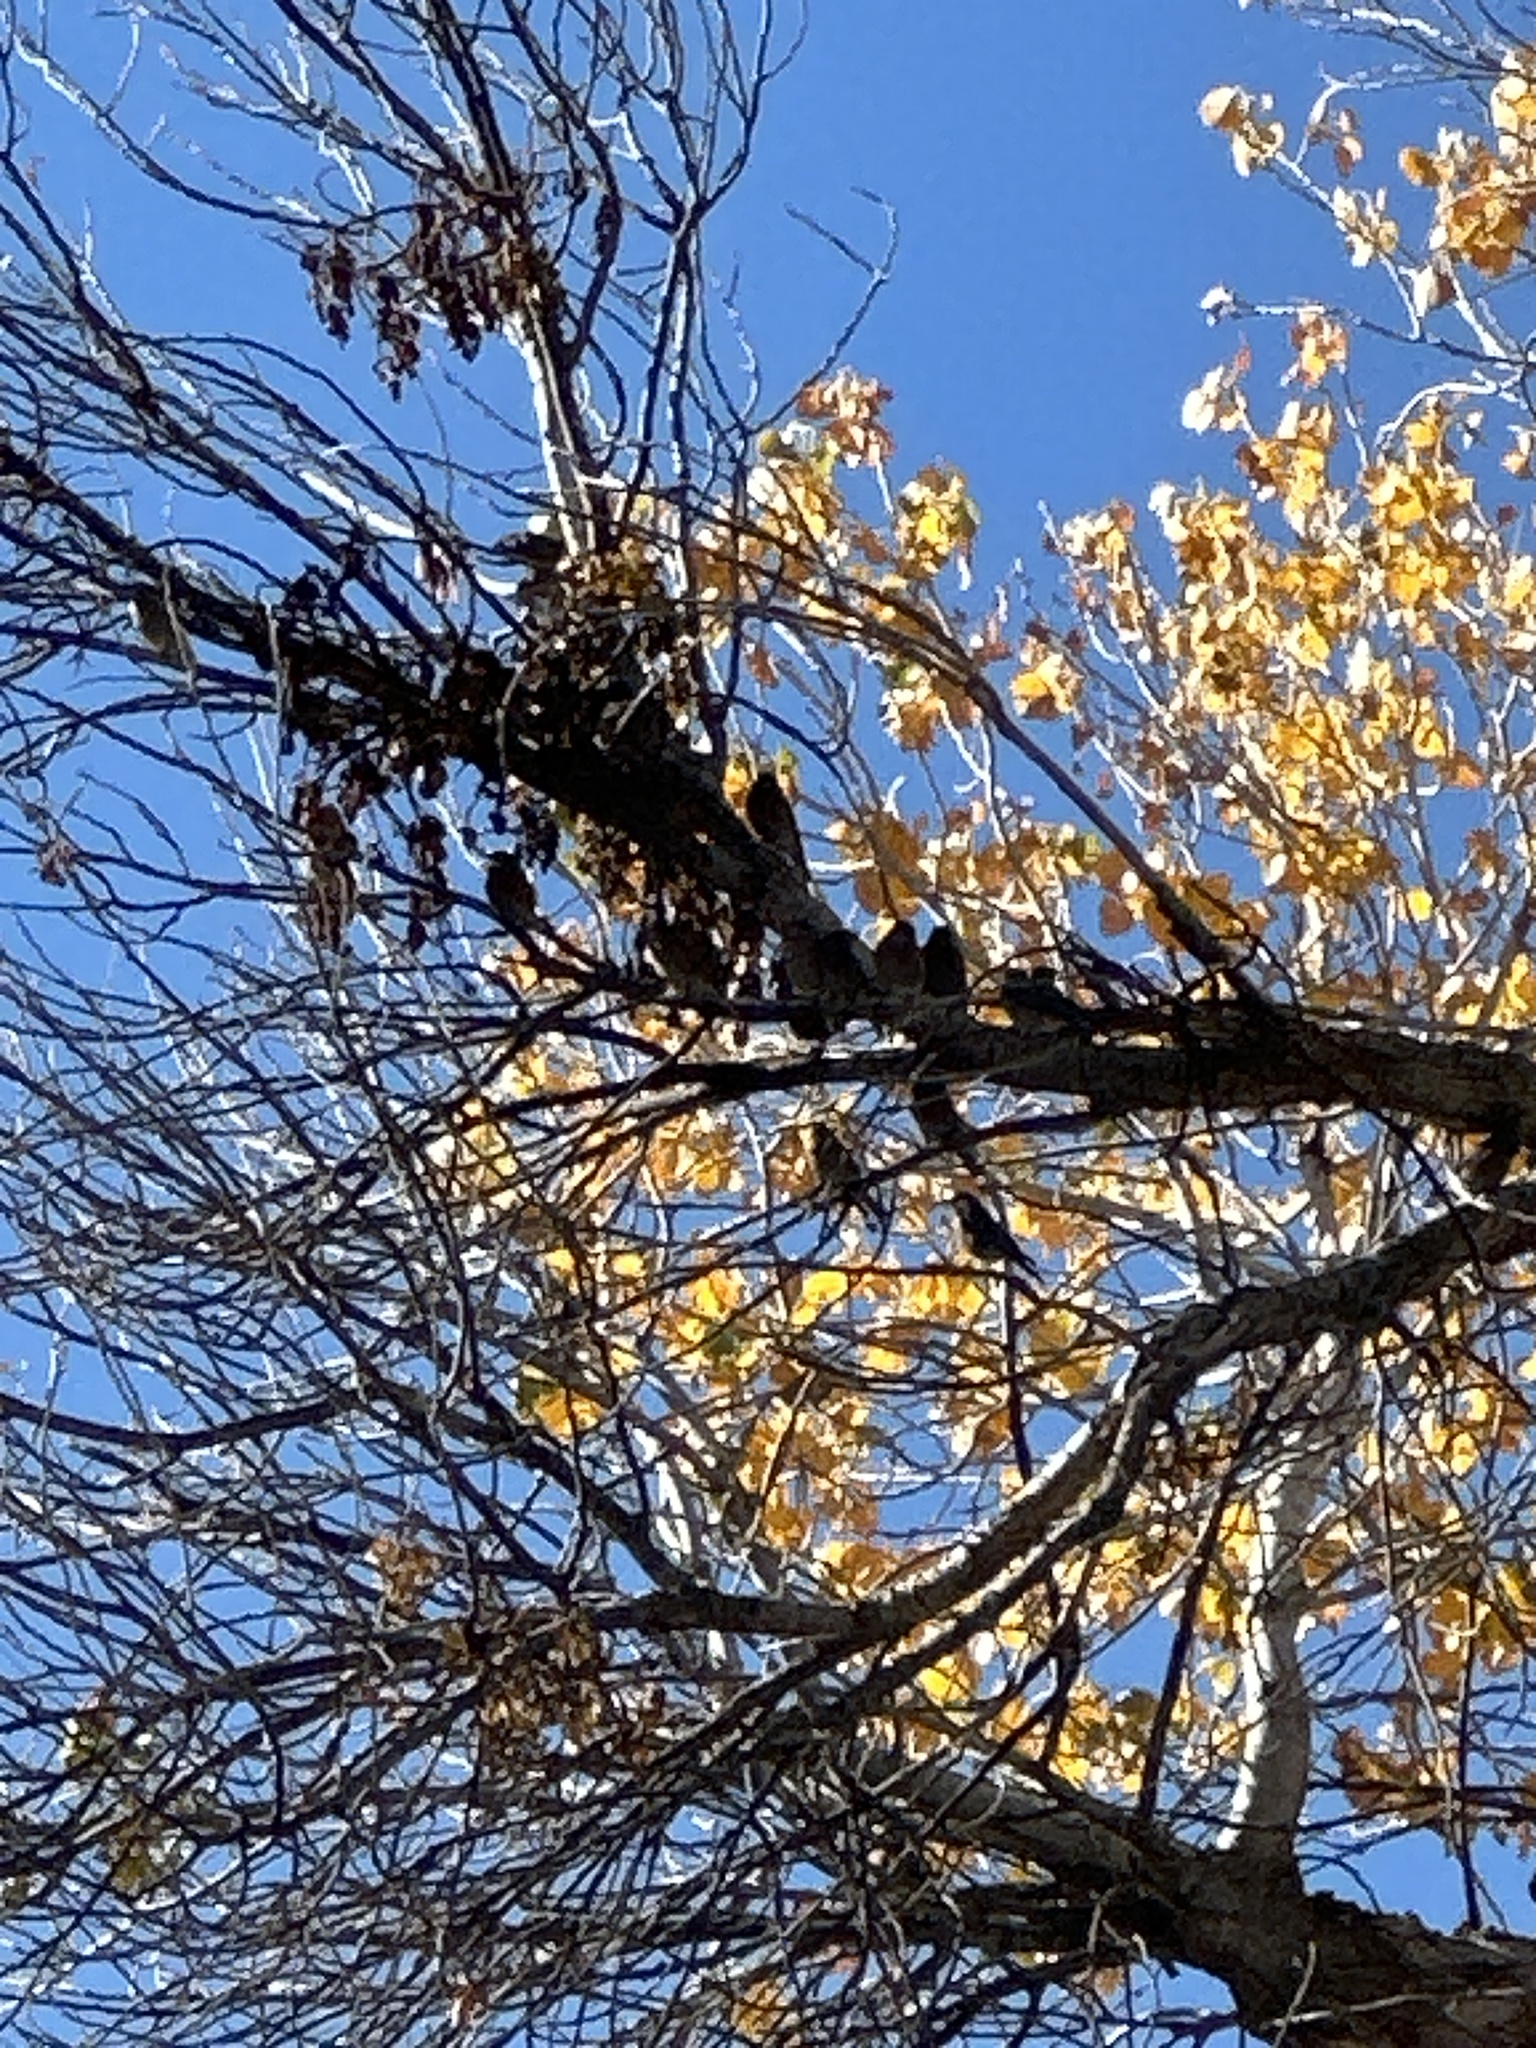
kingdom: Animalia
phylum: Chordata
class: Aves
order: Passeriformes
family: Turdidae
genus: Sialia
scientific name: Sialia mexicana
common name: Western bluebird
